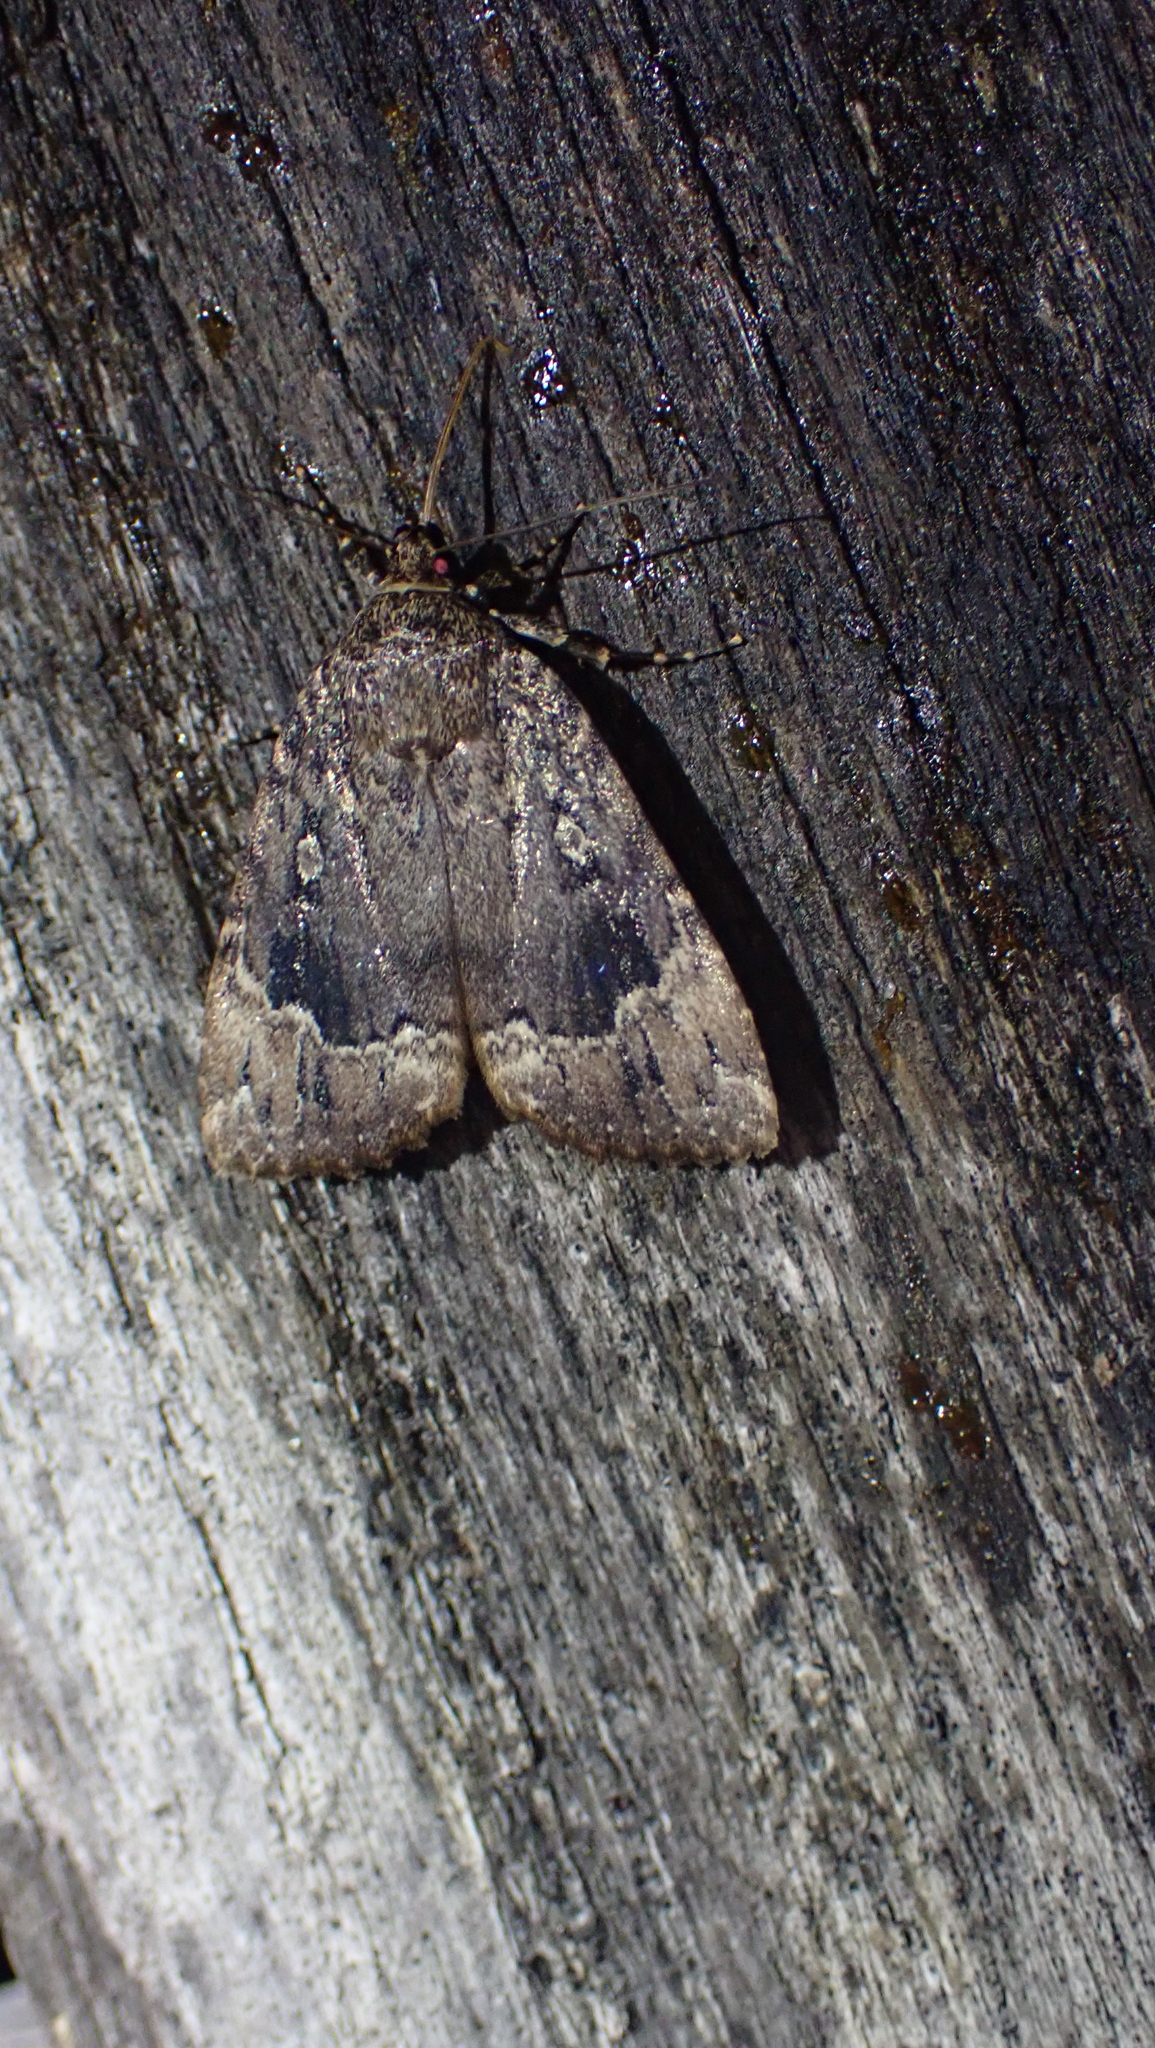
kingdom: Animalia
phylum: Arthropoda
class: Insecta
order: Lepidoptera
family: Noctuidae
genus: Amphipyra
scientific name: Amphipyra pyramidoides
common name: American copper underwing
